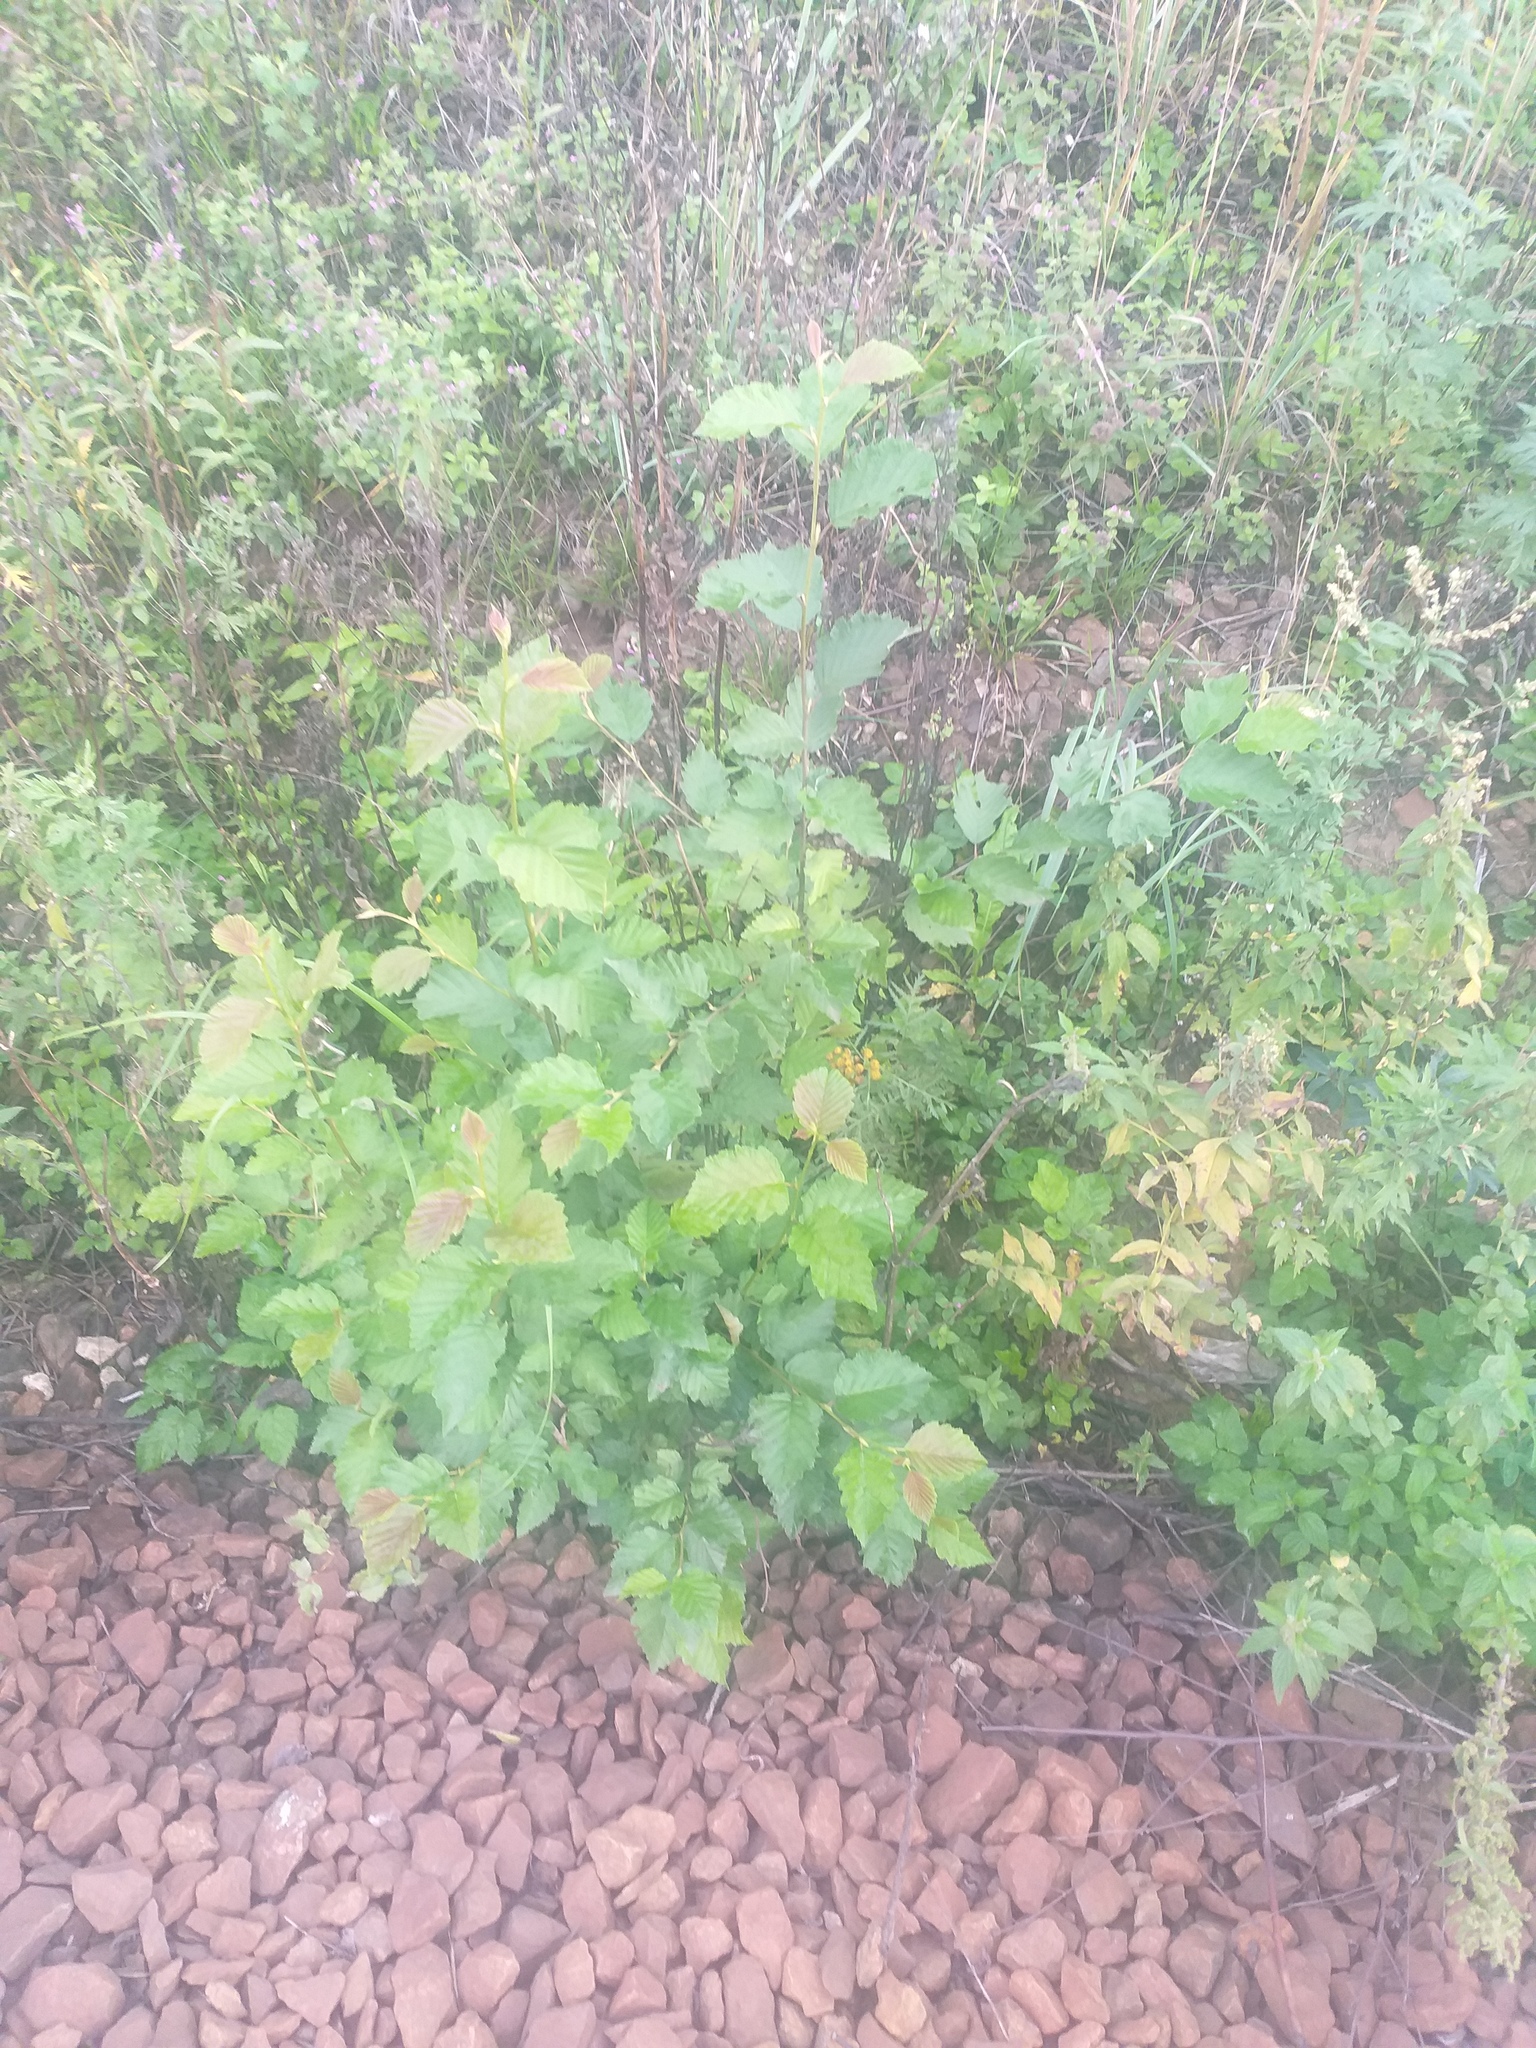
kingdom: Plantae
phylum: Tracheophyta
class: Magnoliopsida
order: Fagales
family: Betulaceae
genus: Alnus
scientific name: Alnus incana
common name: Grey alder
